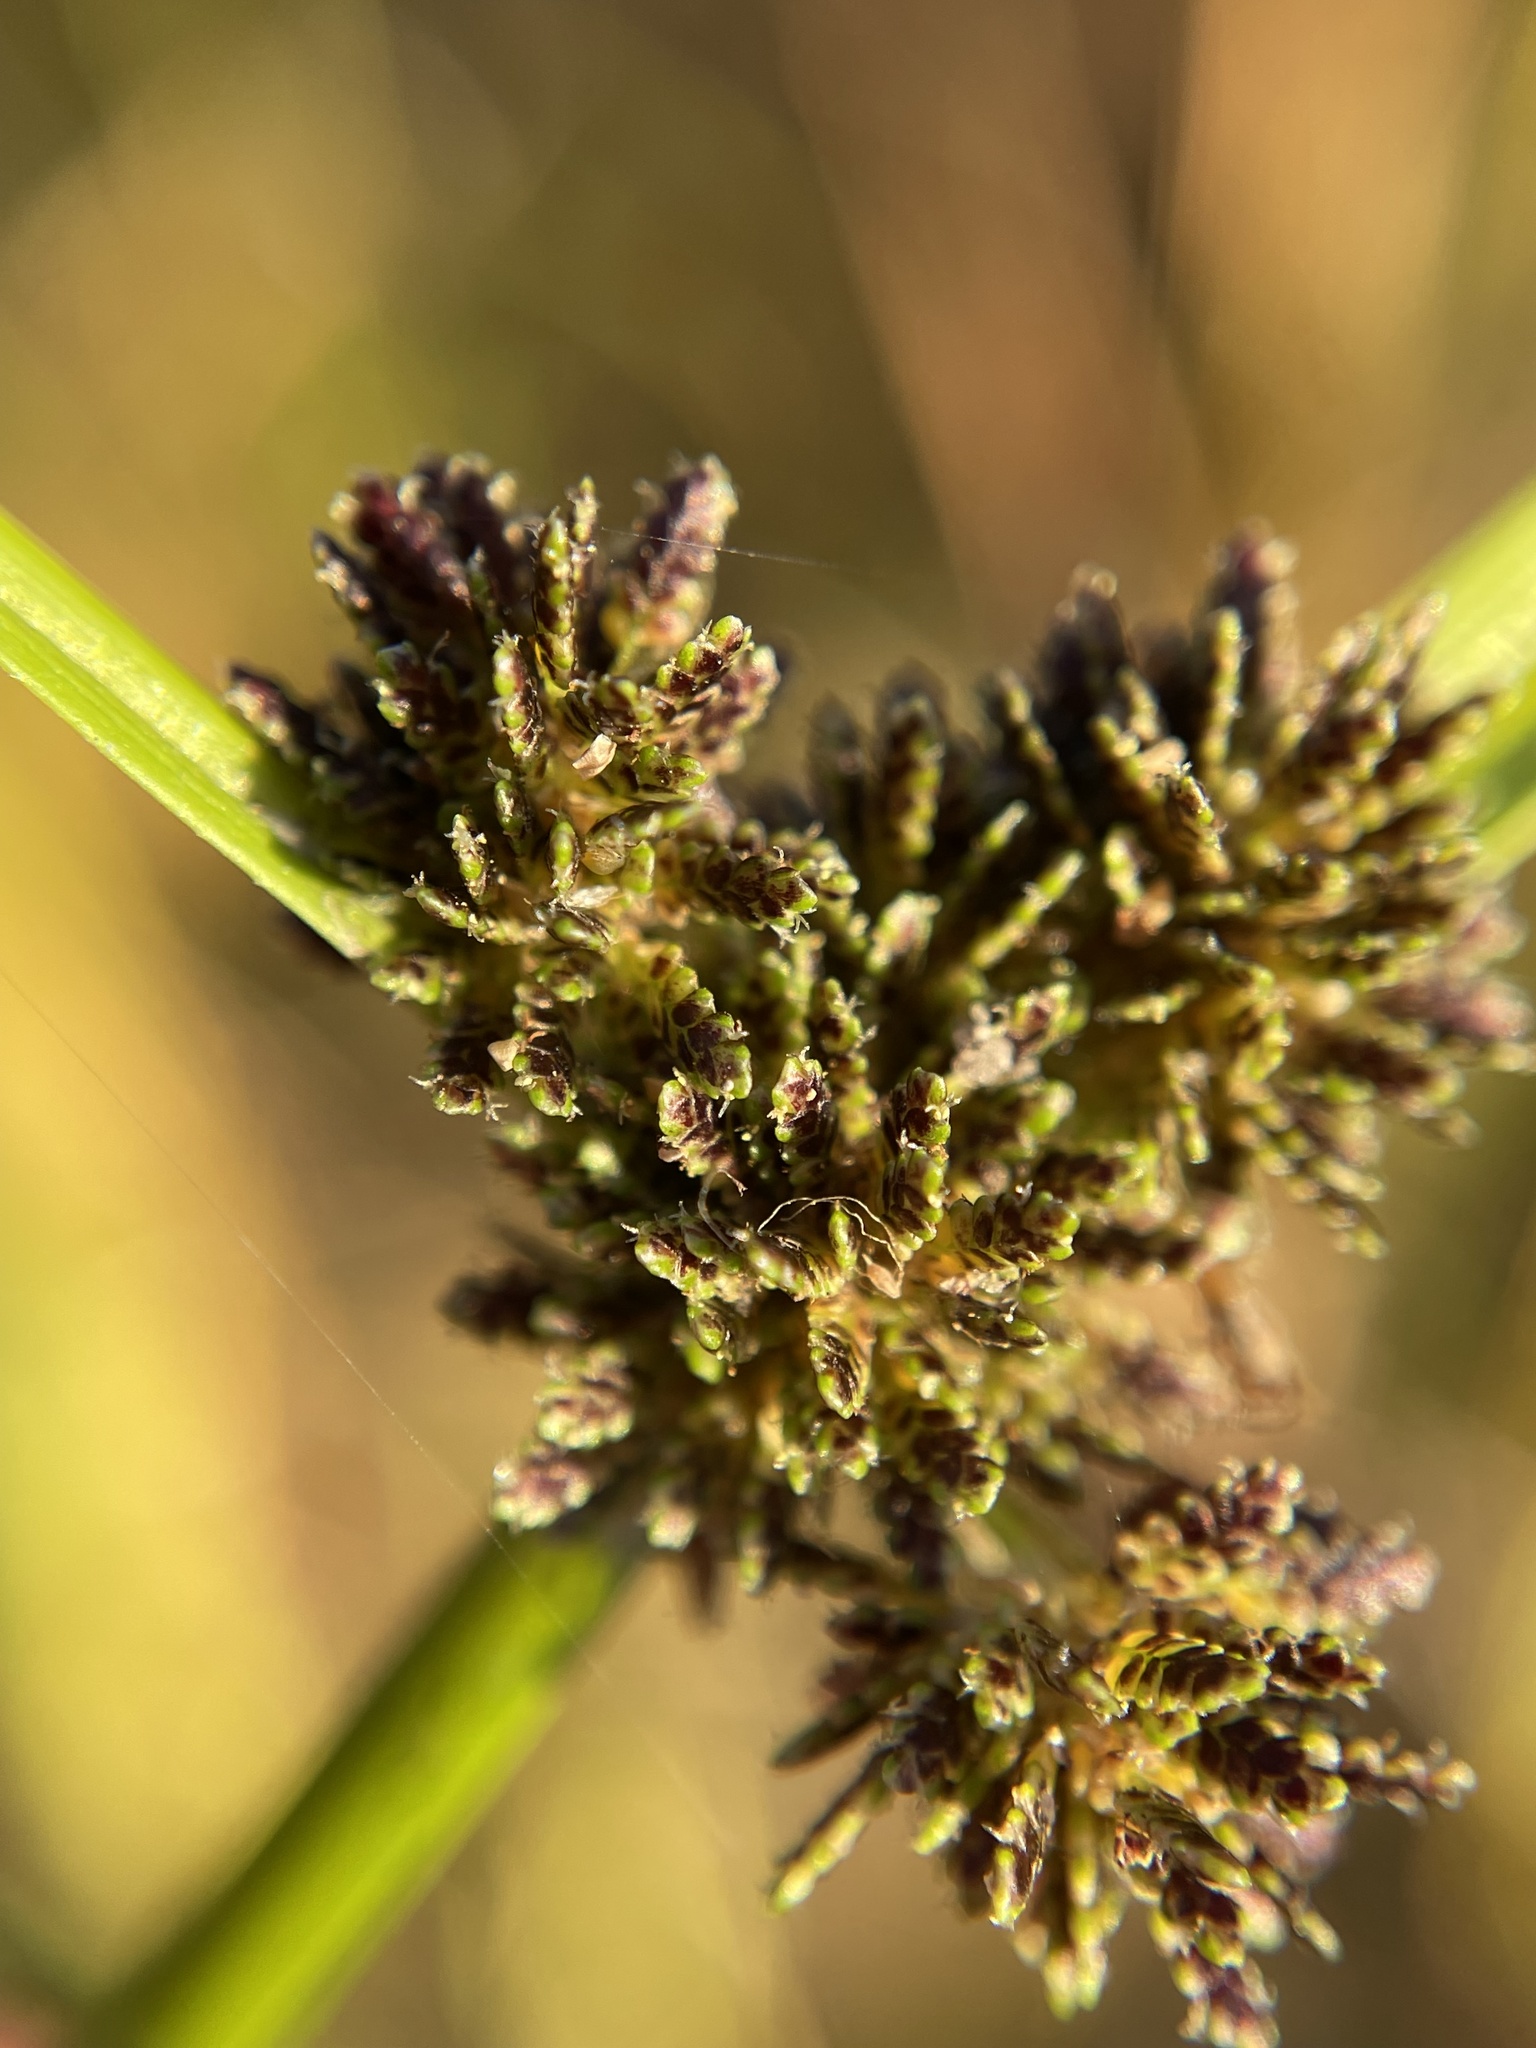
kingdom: Plantae
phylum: Tracheophyta
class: Liliopsida
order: Poales
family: Cyperaceae
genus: Cyperus
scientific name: Cyperus difformis
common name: Variable flatsedge
